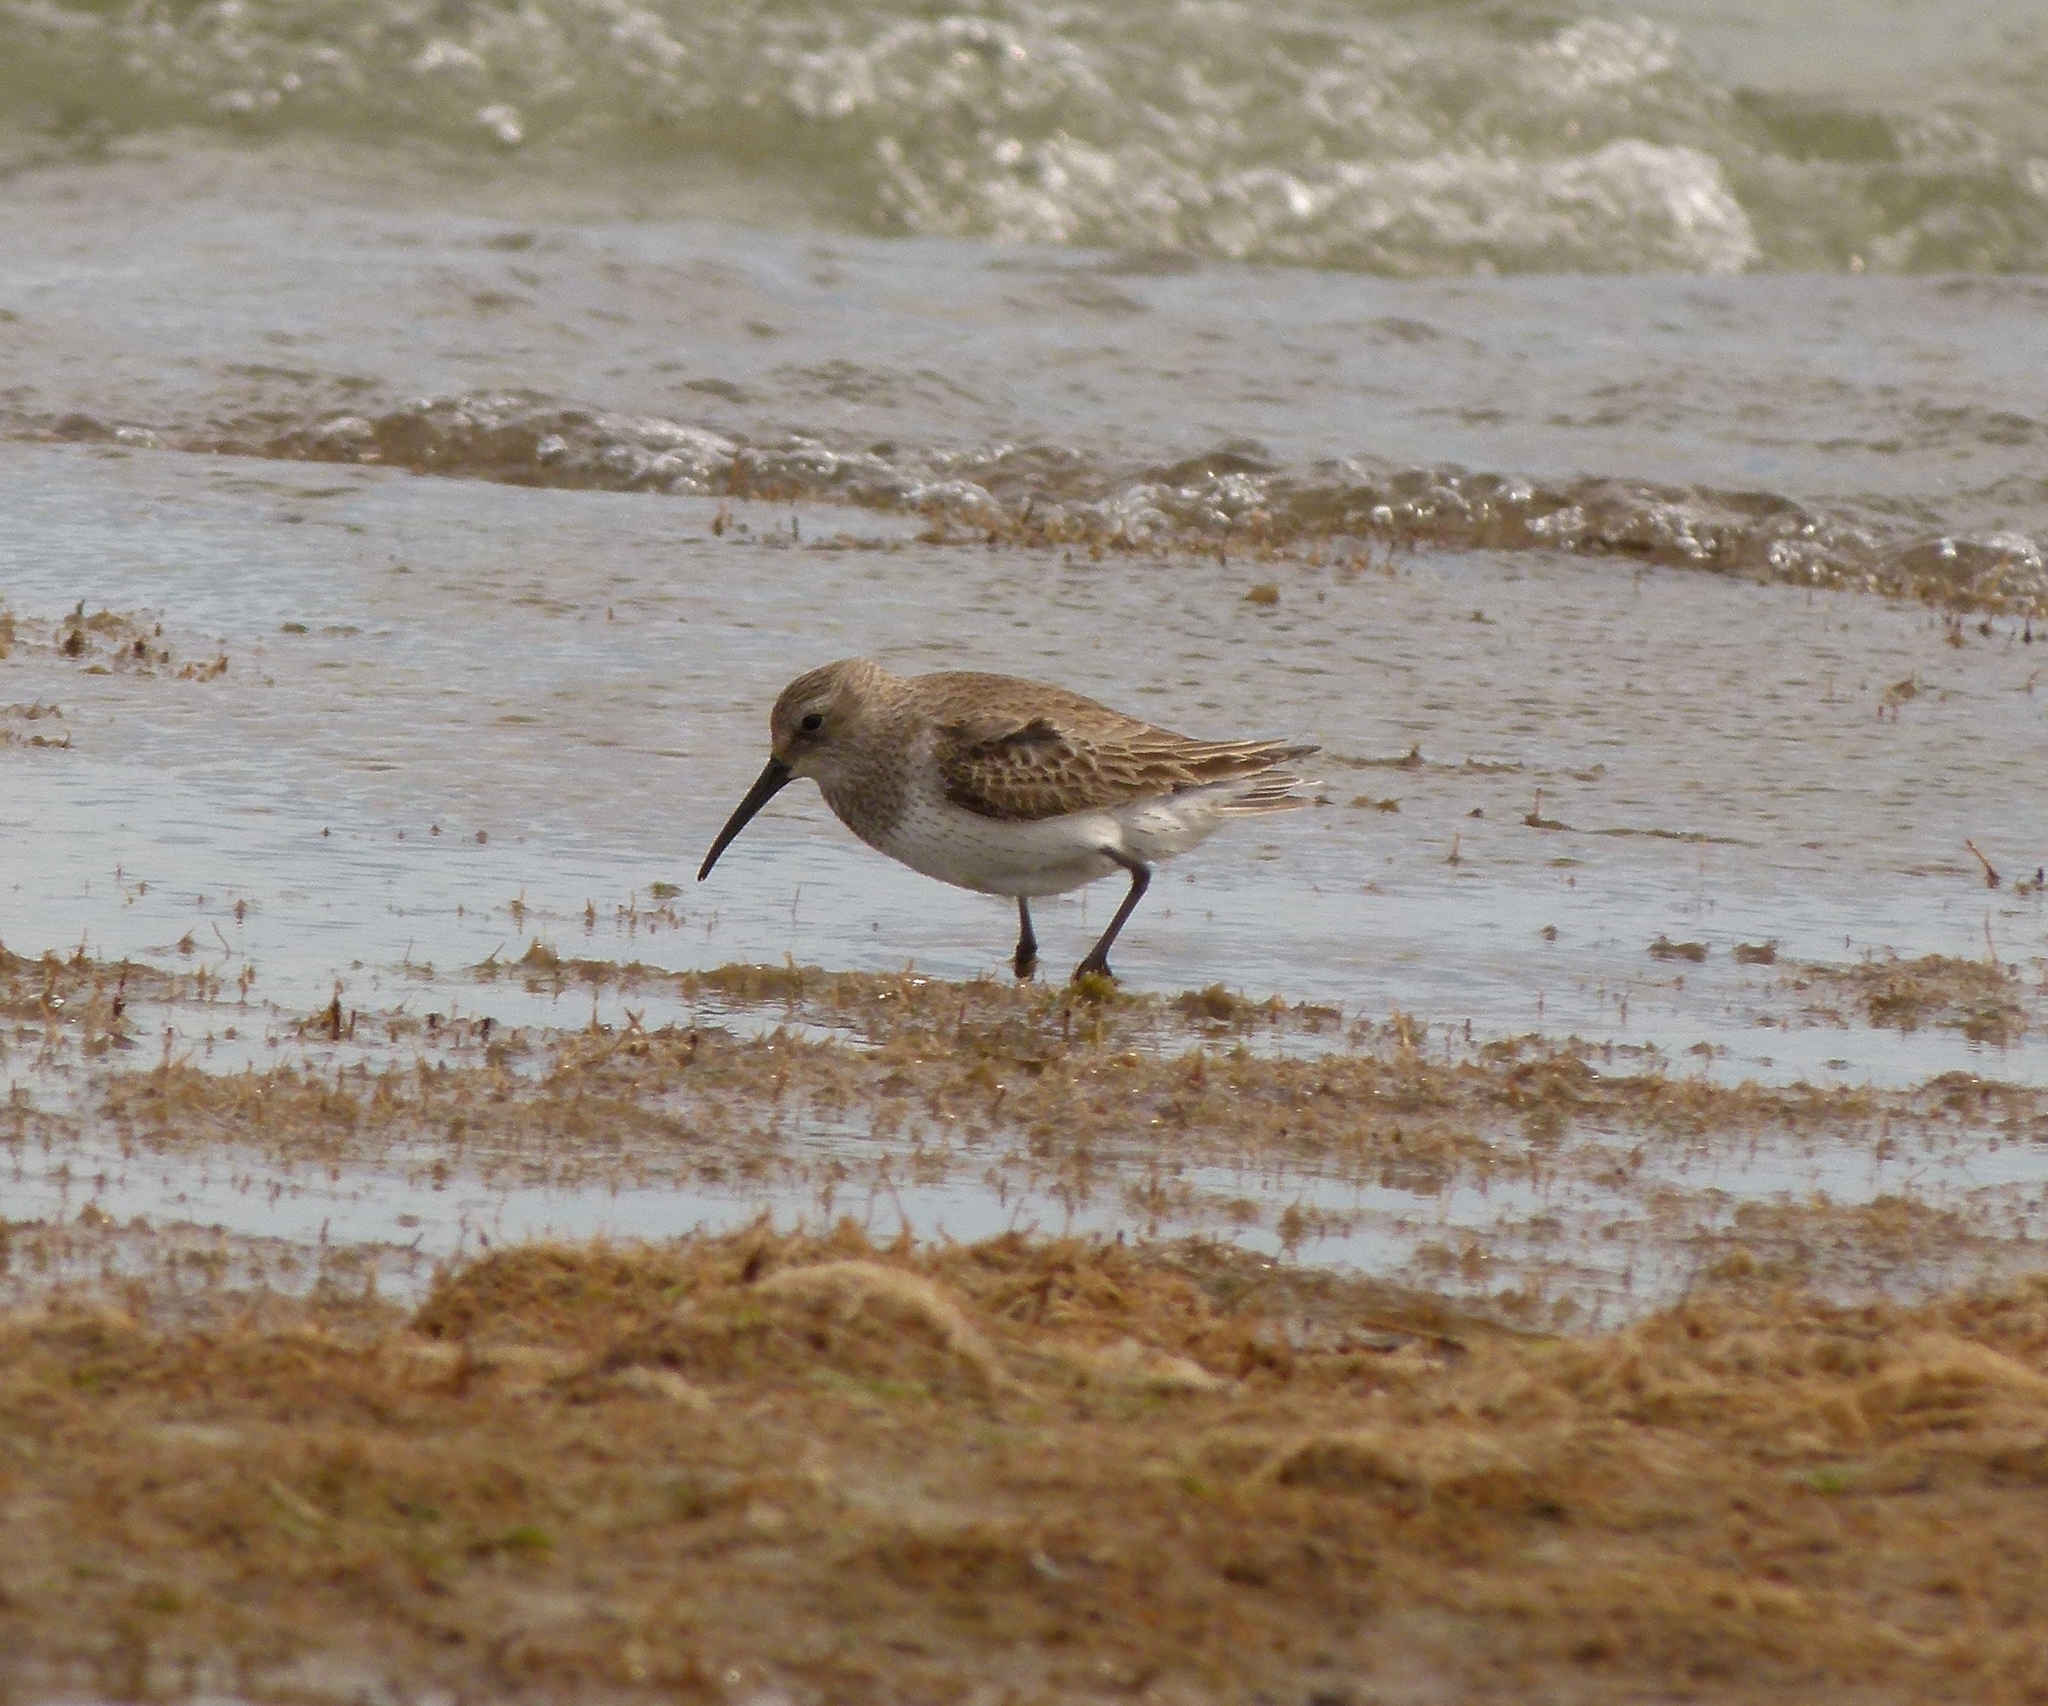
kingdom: Animalia
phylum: Chordata
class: Aves
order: Charadriiformes
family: Scolopacidae
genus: Calidris
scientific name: Calidris alpina
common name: Dunlin
